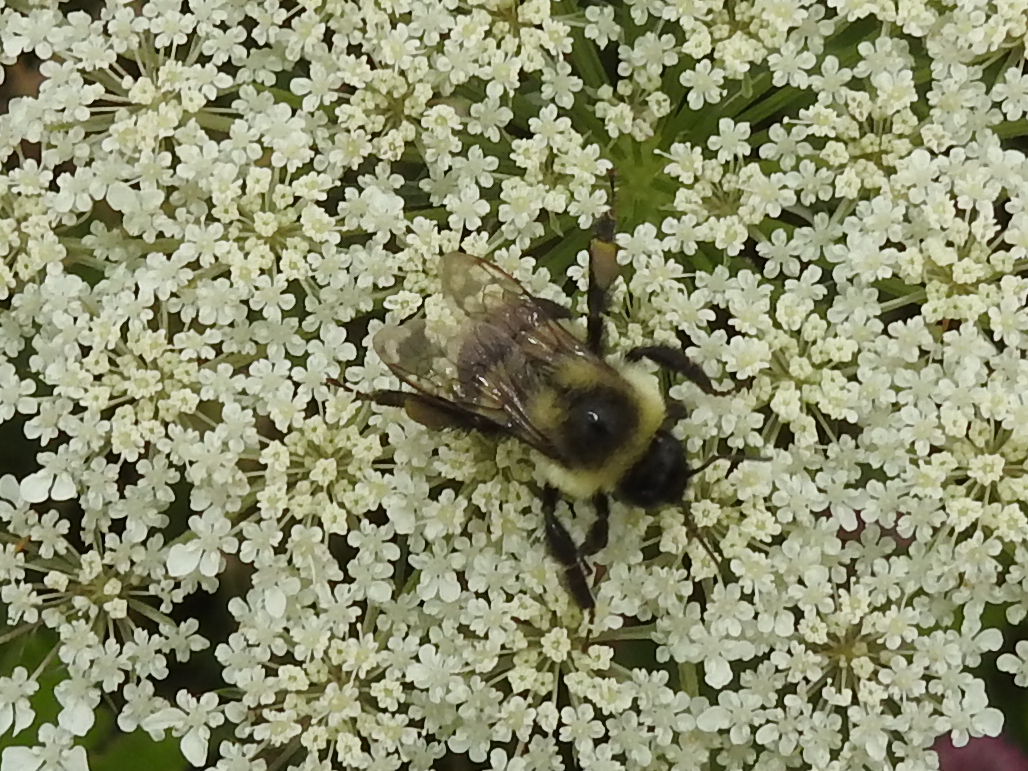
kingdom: Animalia
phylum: Arthropoda
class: Insecta
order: Hymenoptera
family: Apidae
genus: Bombus
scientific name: Bombus impatiens
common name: Common eastern bumble bee
